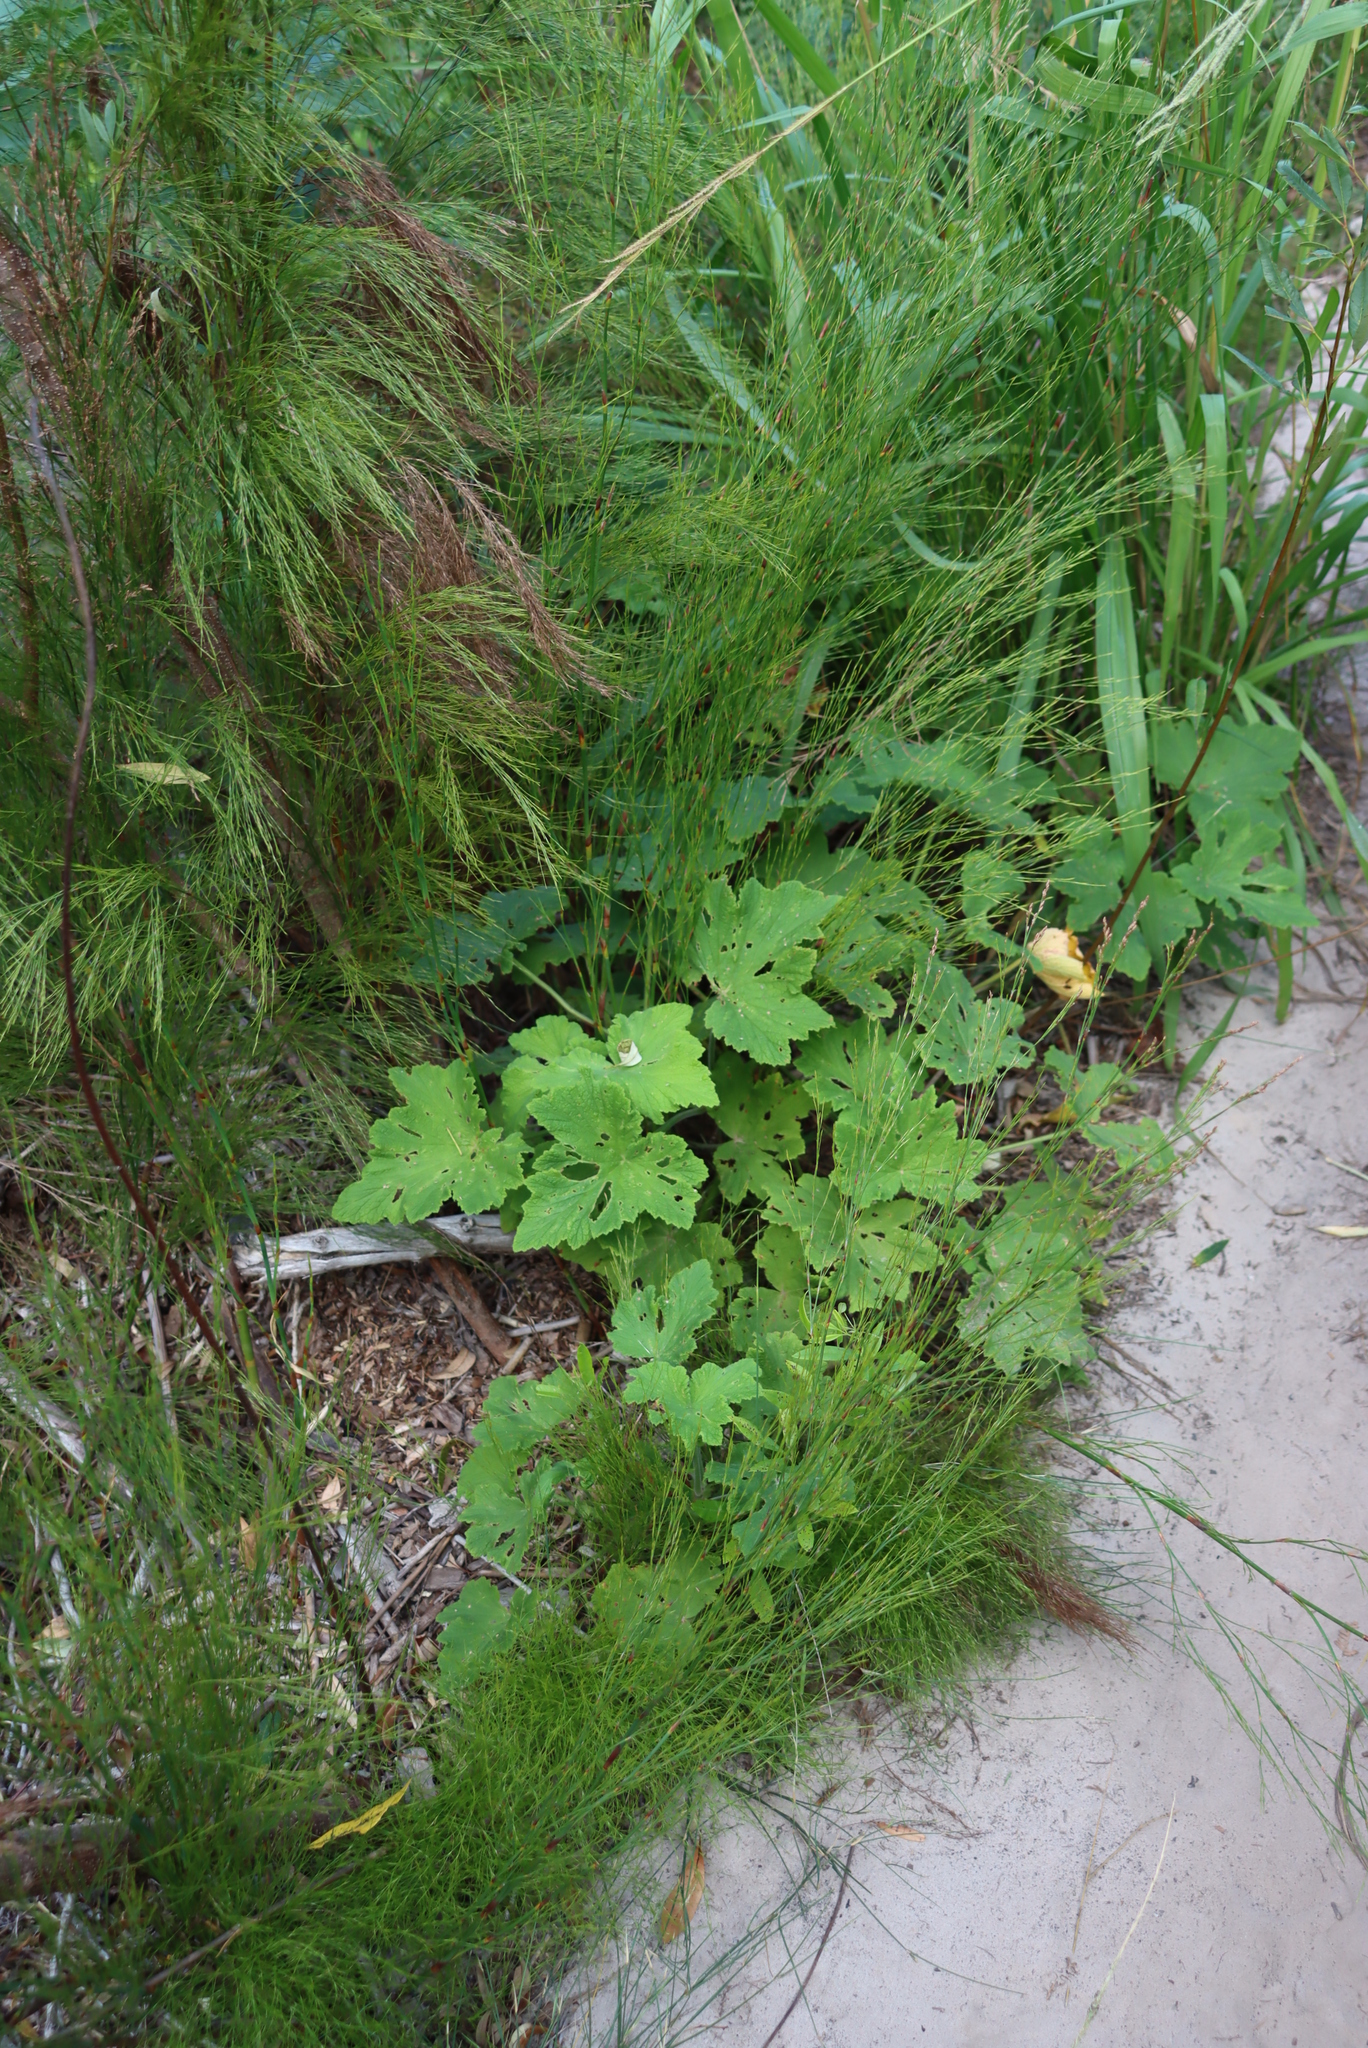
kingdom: Plantae
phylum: Tracheophyta
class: Magnoliopsida
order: Geraniales
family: Geraniaceae
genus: Pelargonium
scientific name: Pelargonium papilionaceum
